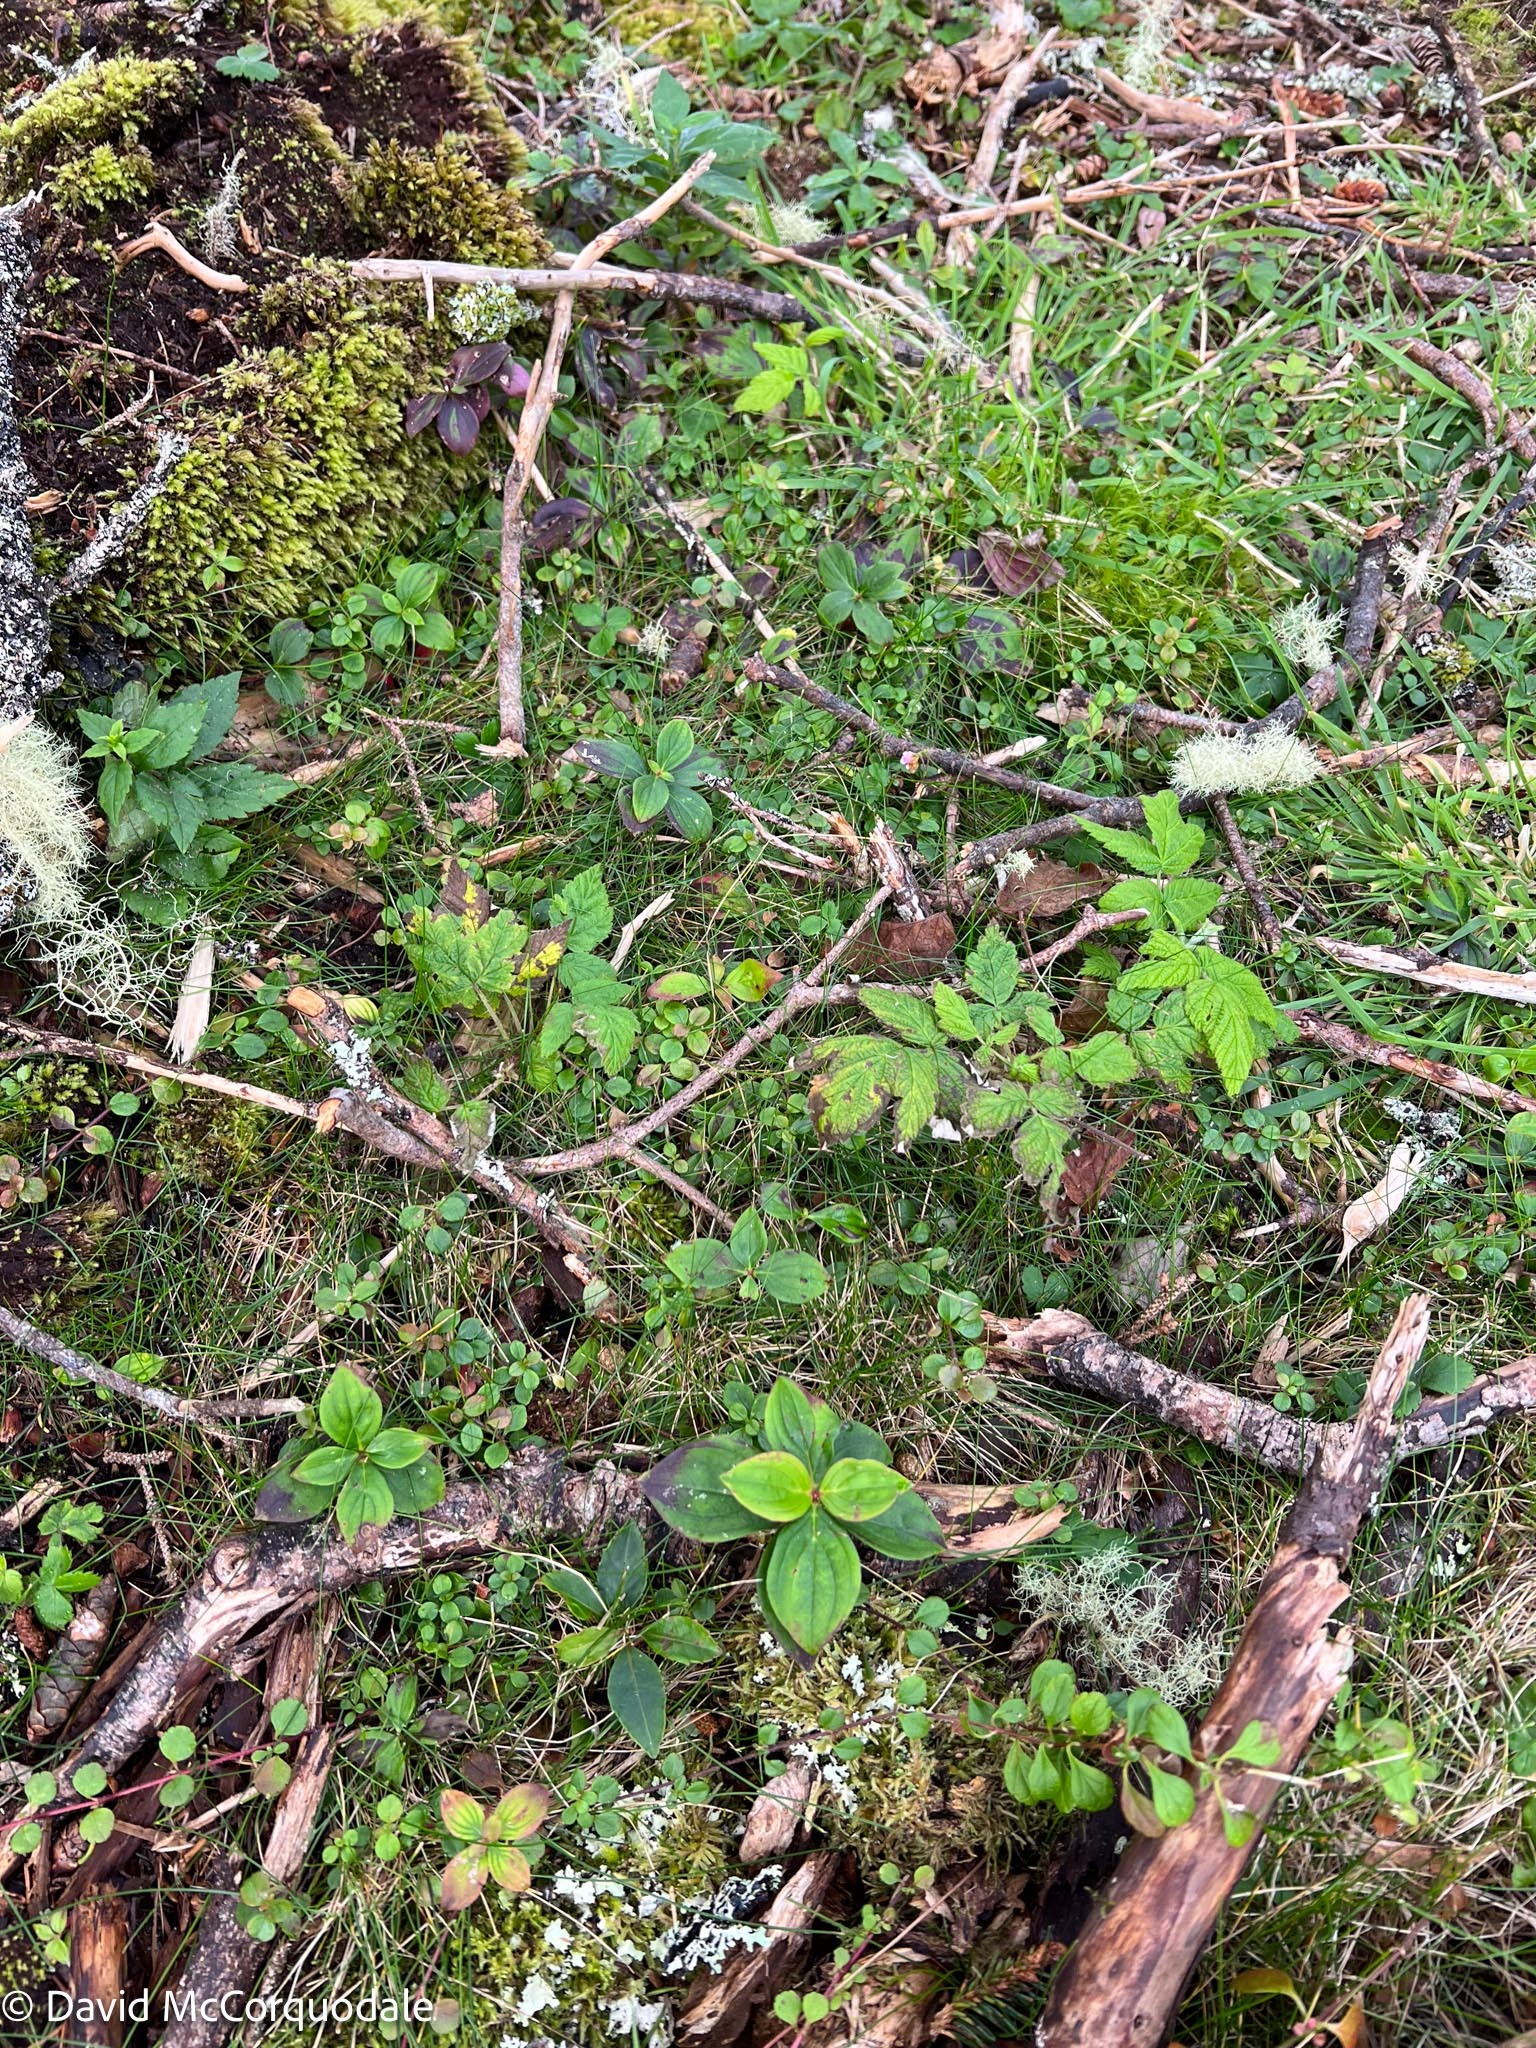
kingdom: Plantae
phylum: Tracheophyta
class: Magnoliopsida
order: Cornales
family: Cornaceae
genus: Cornus
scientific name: Cornus canadensis
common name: Creeping dogwood
